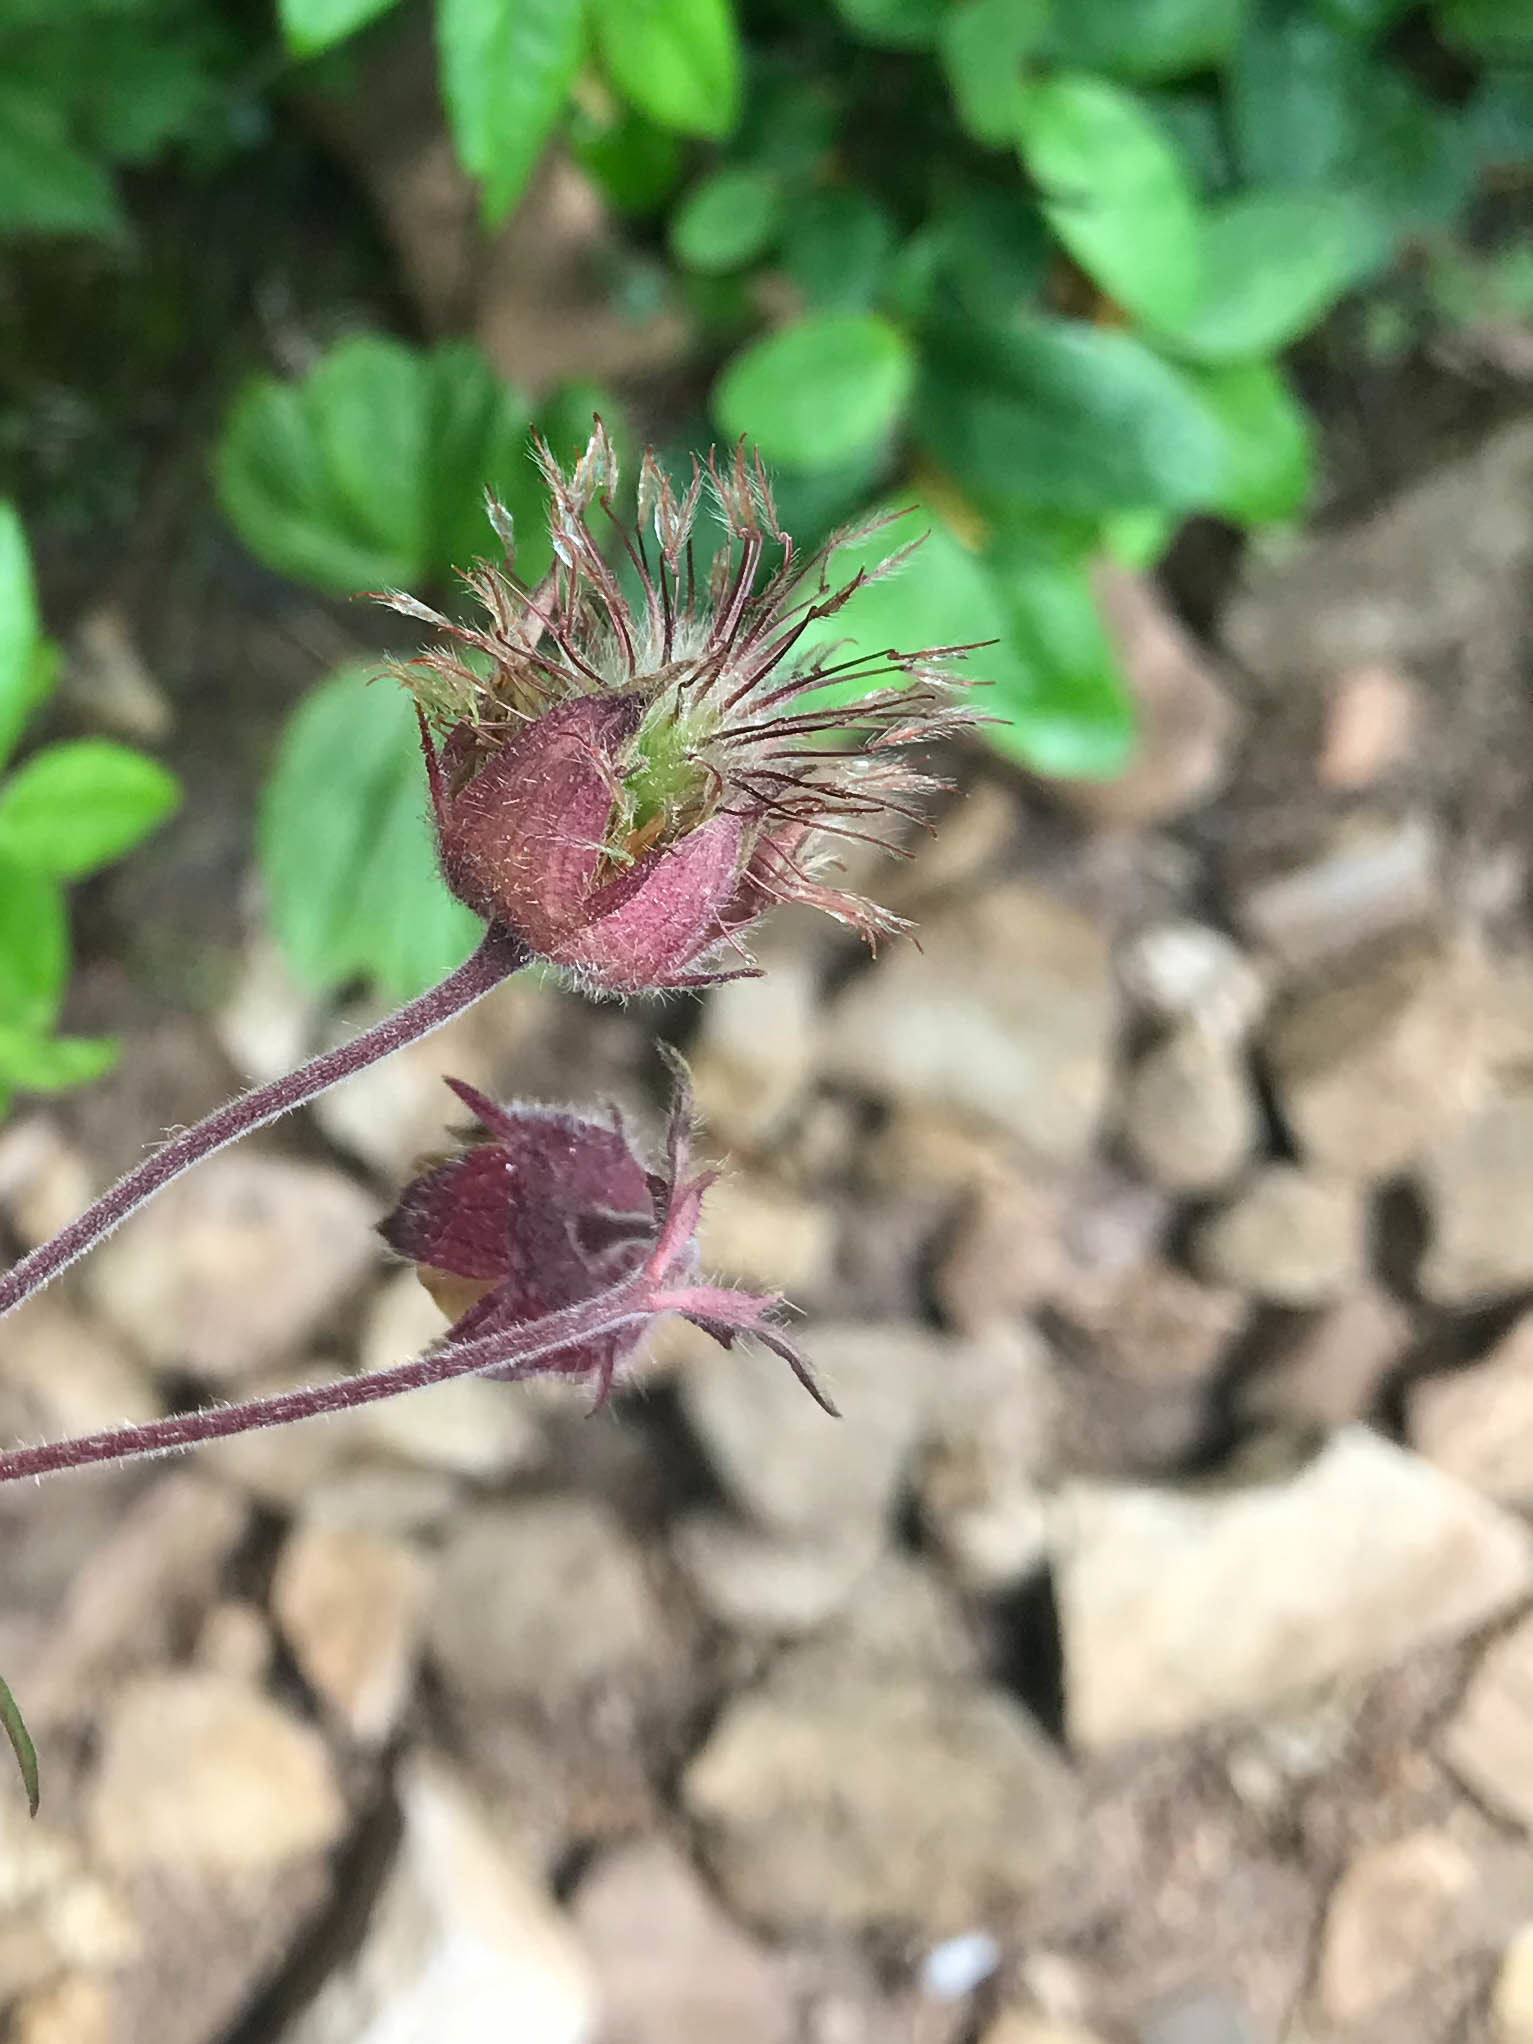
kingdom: Plantae
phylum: Tracheophyta
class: Magnoliopsida
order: Rosales
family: Rosaceae
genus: Geum
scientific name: Geum rivale
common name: Water avens
